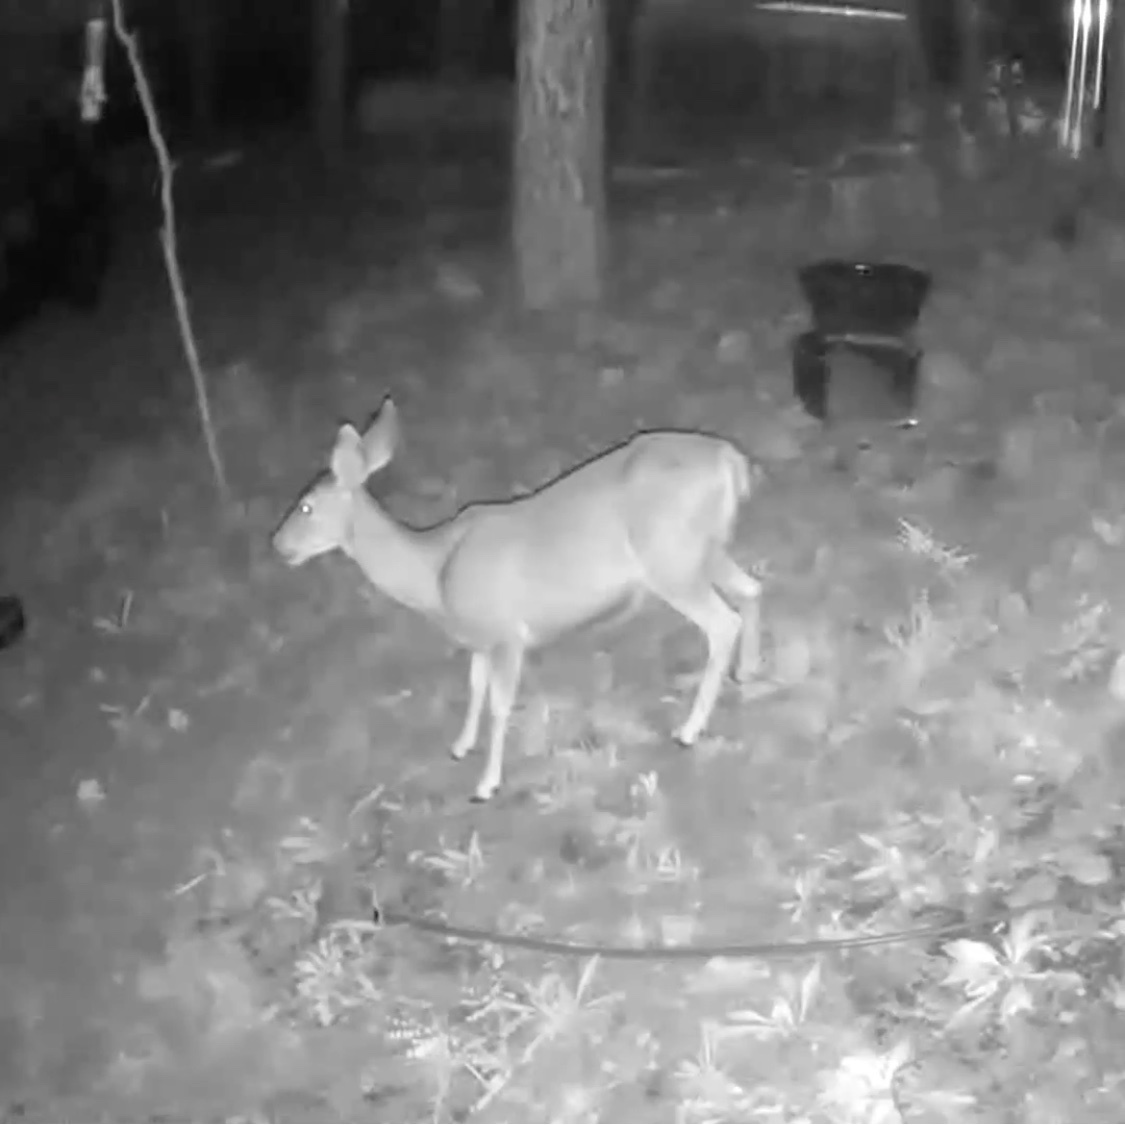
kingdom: Animalia
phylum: Chordata
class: Mammalia
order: Artiodactyla
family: Cervidae
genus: Odocoileus
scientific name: Odocoileus hemionus
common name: Mule deer
